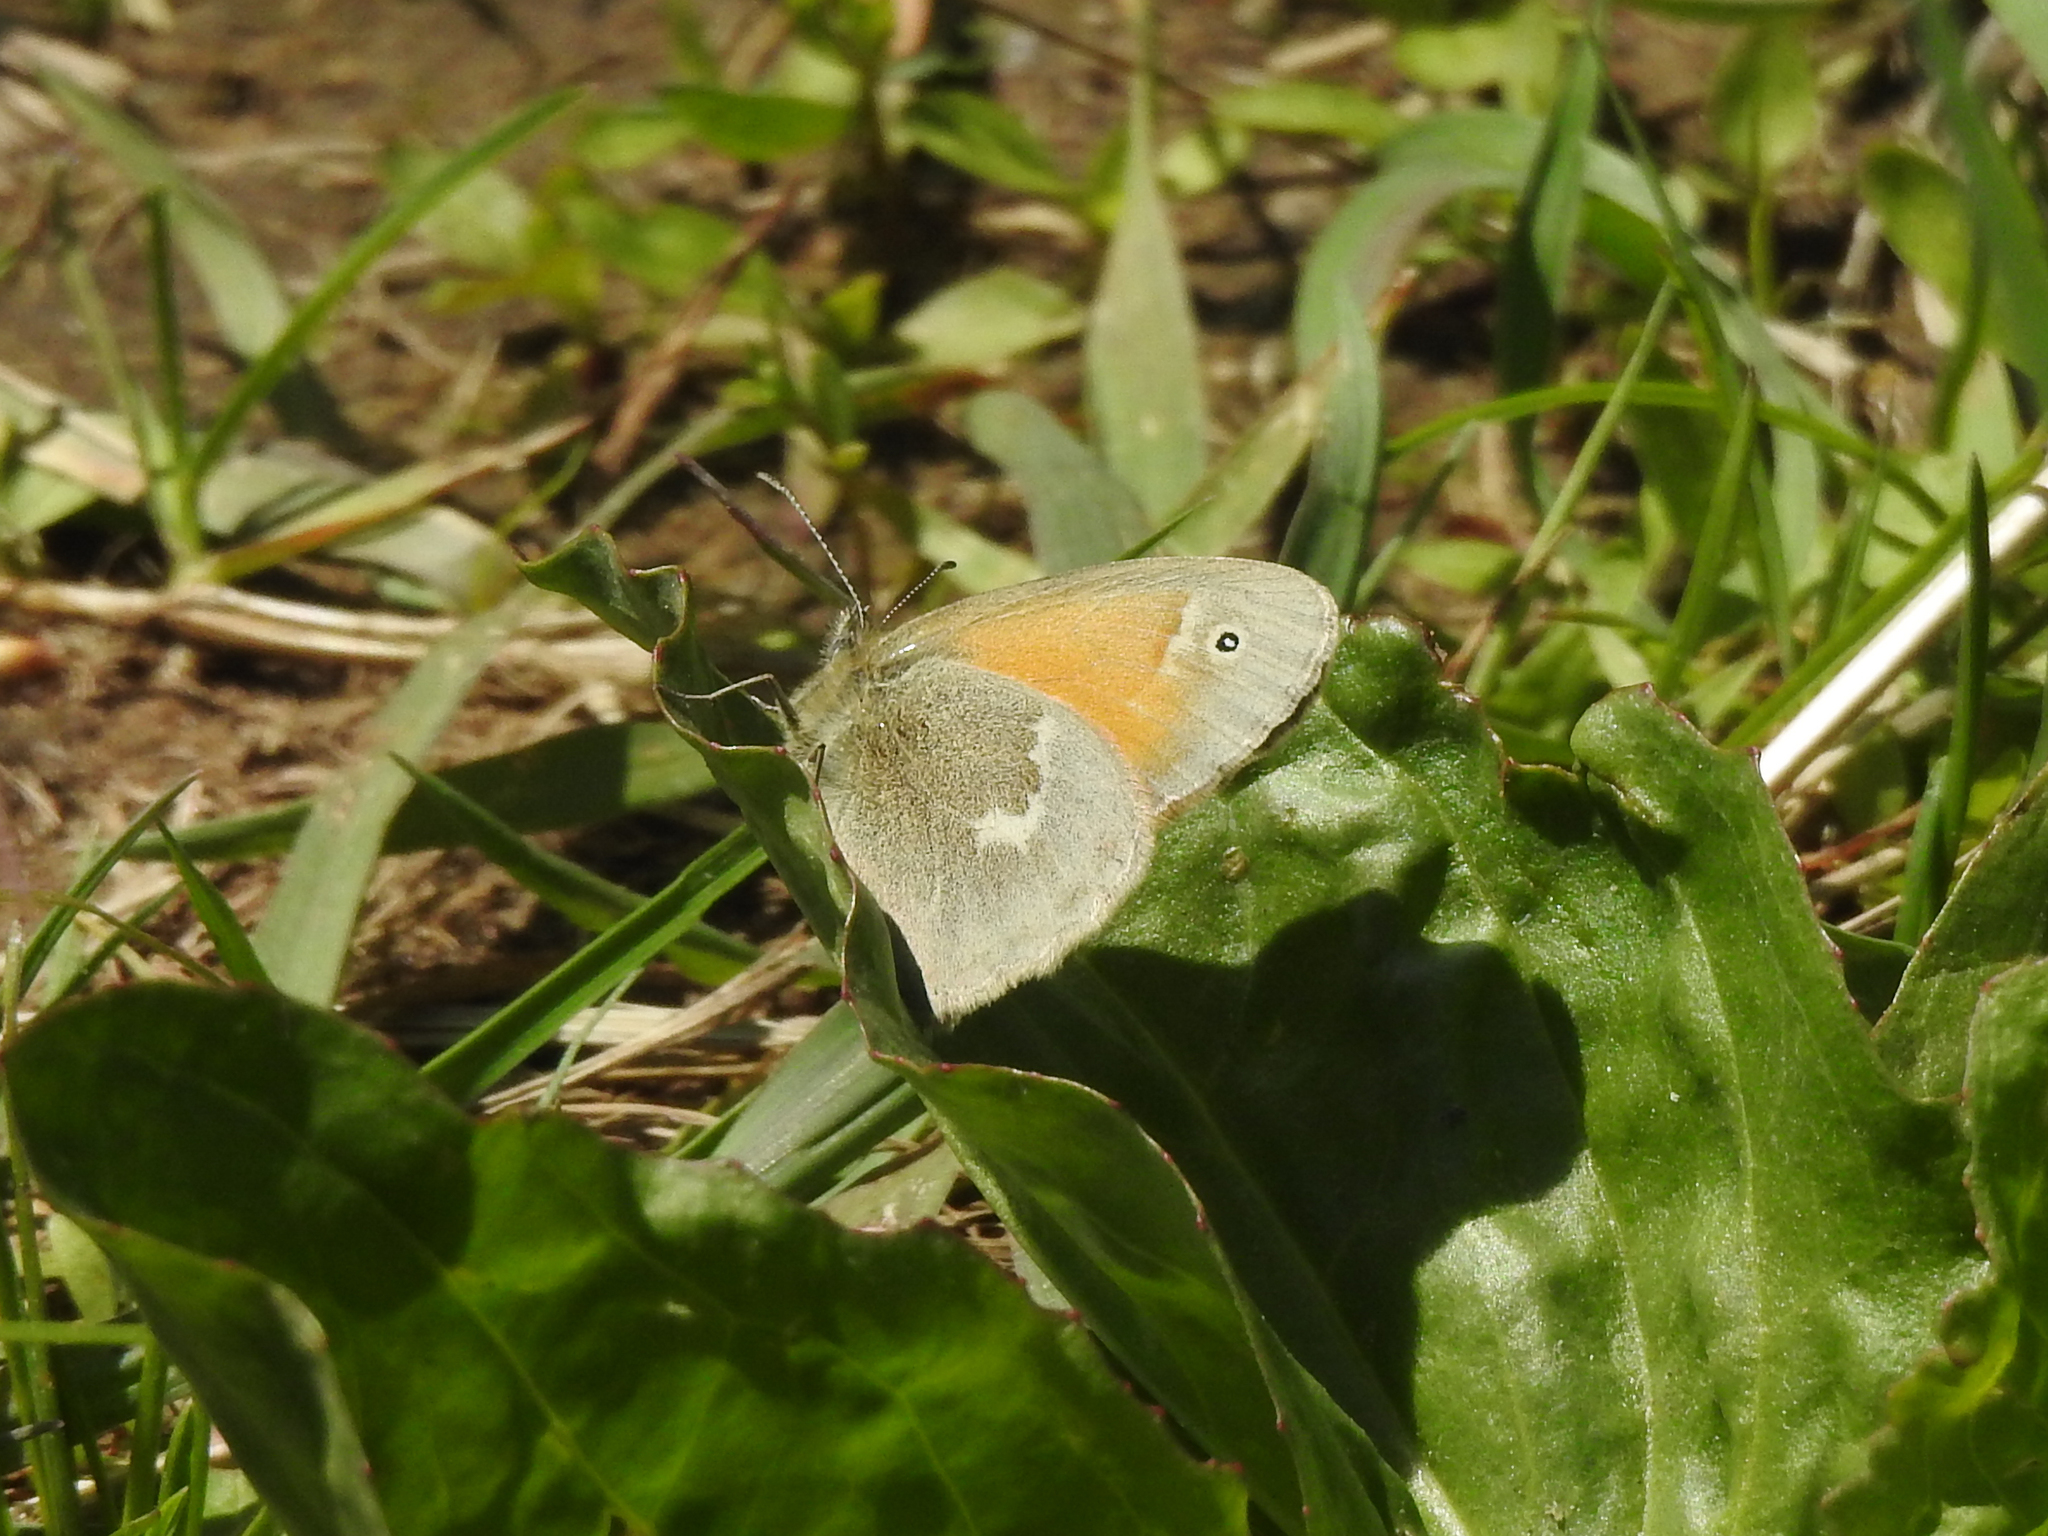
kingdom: Animalia
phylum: Arthropoda
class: Insecta
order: Lepidoptera
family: Nymphalidae
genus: Coenonympha
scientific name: Coenonympha california
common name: Common ringlet
